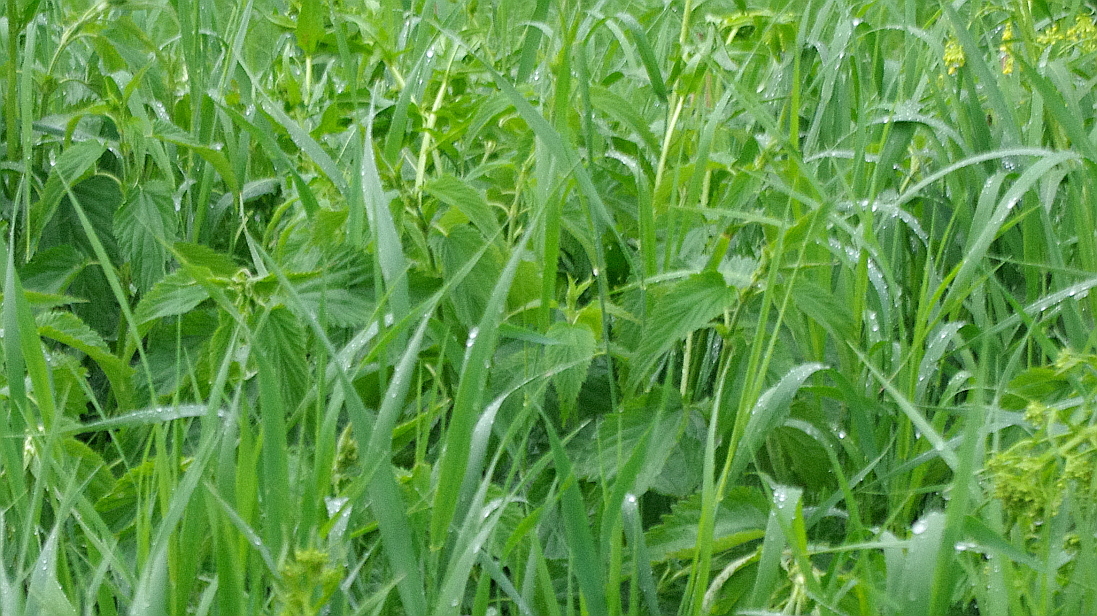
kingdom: Plantae
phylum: Tracheophyta
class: Magnoliopsida
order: Rosales
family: Urticaceae
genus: Urtica
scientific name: Urtica dioica
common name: Common nettle
